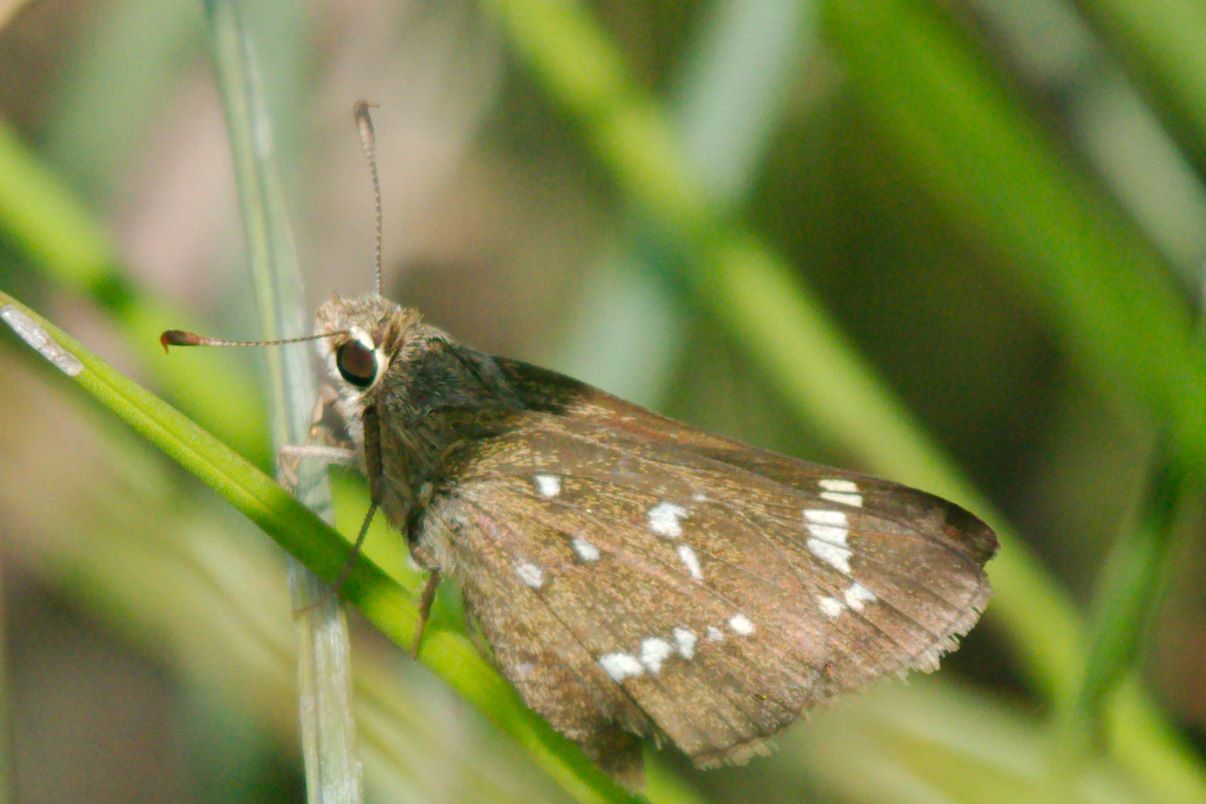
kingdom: Animalia
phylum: Arthropoda
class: Insecta
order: Lepidoptera
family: Hesperiidae
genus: Atrytonopsis
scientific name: Atrytonopsis loammi
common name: Loammi skipper
